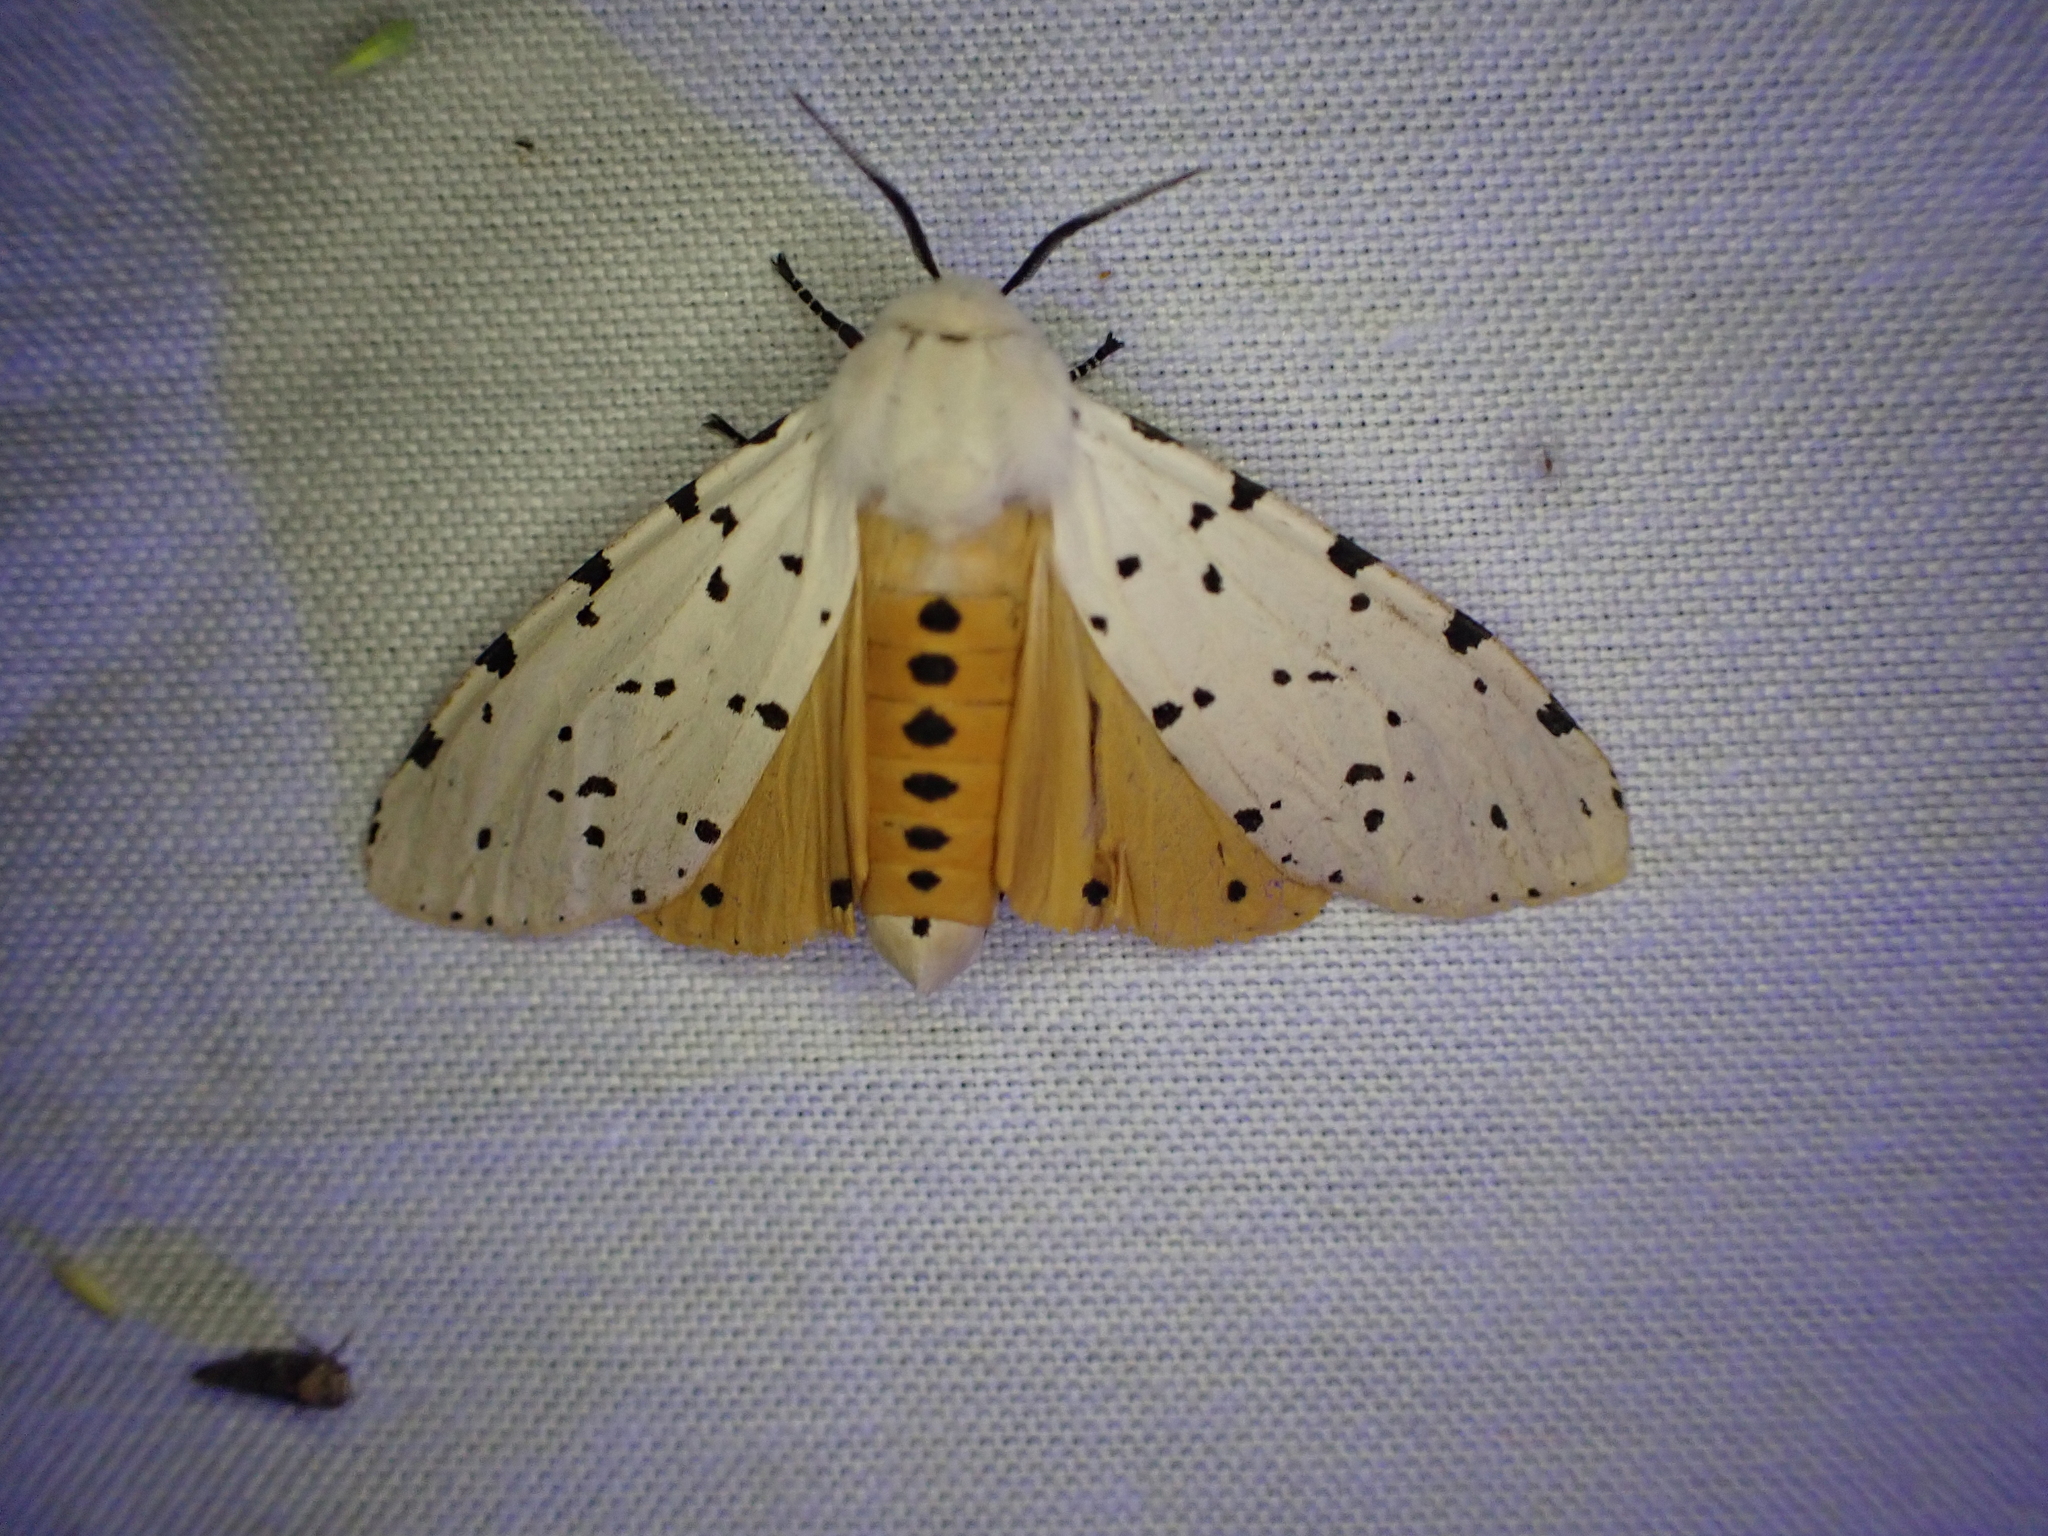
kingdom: Animalia
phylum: Arthropoda
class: Insecta
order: Lepidoptera
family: Erebidae
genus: Estigmene
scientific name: Estigmene acrea
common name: Salt marsh moth
